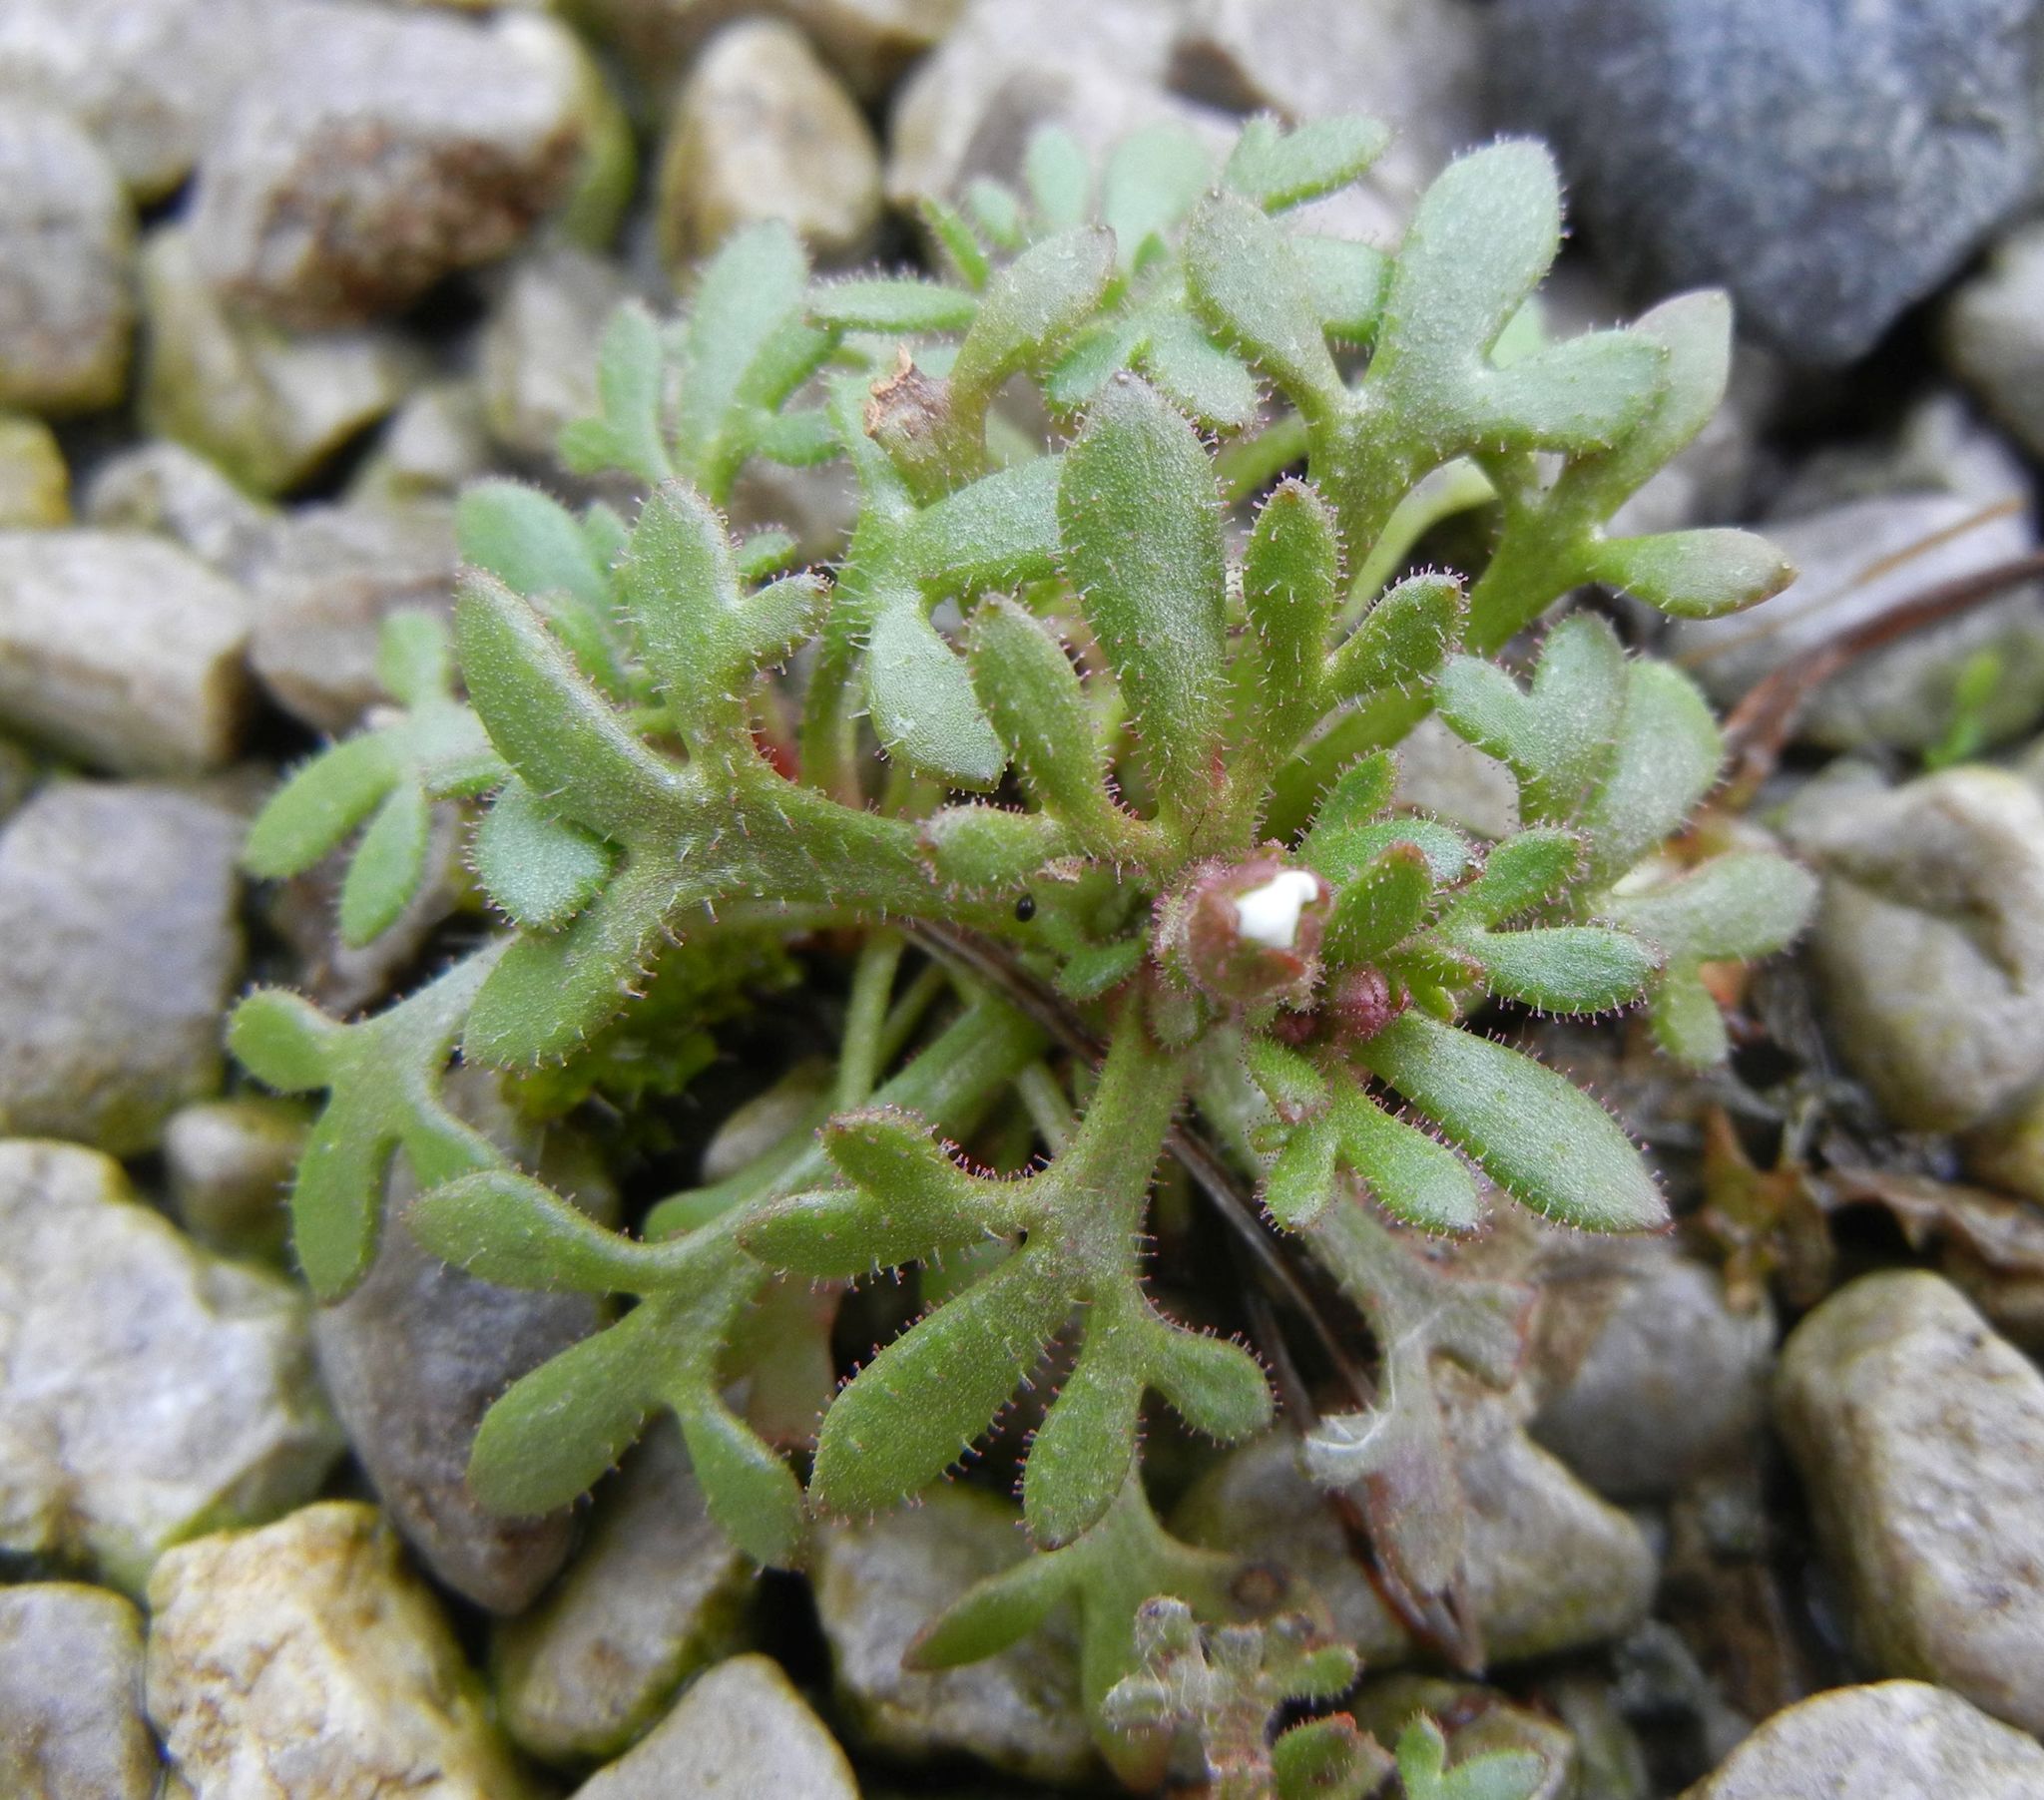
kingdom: Plantae
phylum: Tracheophyta
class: Magnoliopsida
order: Saxifragales
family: Saxifragaceae
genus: Saxifraga
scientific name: Saxifraga tridactylites
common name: Rue-leaved saxifrage
